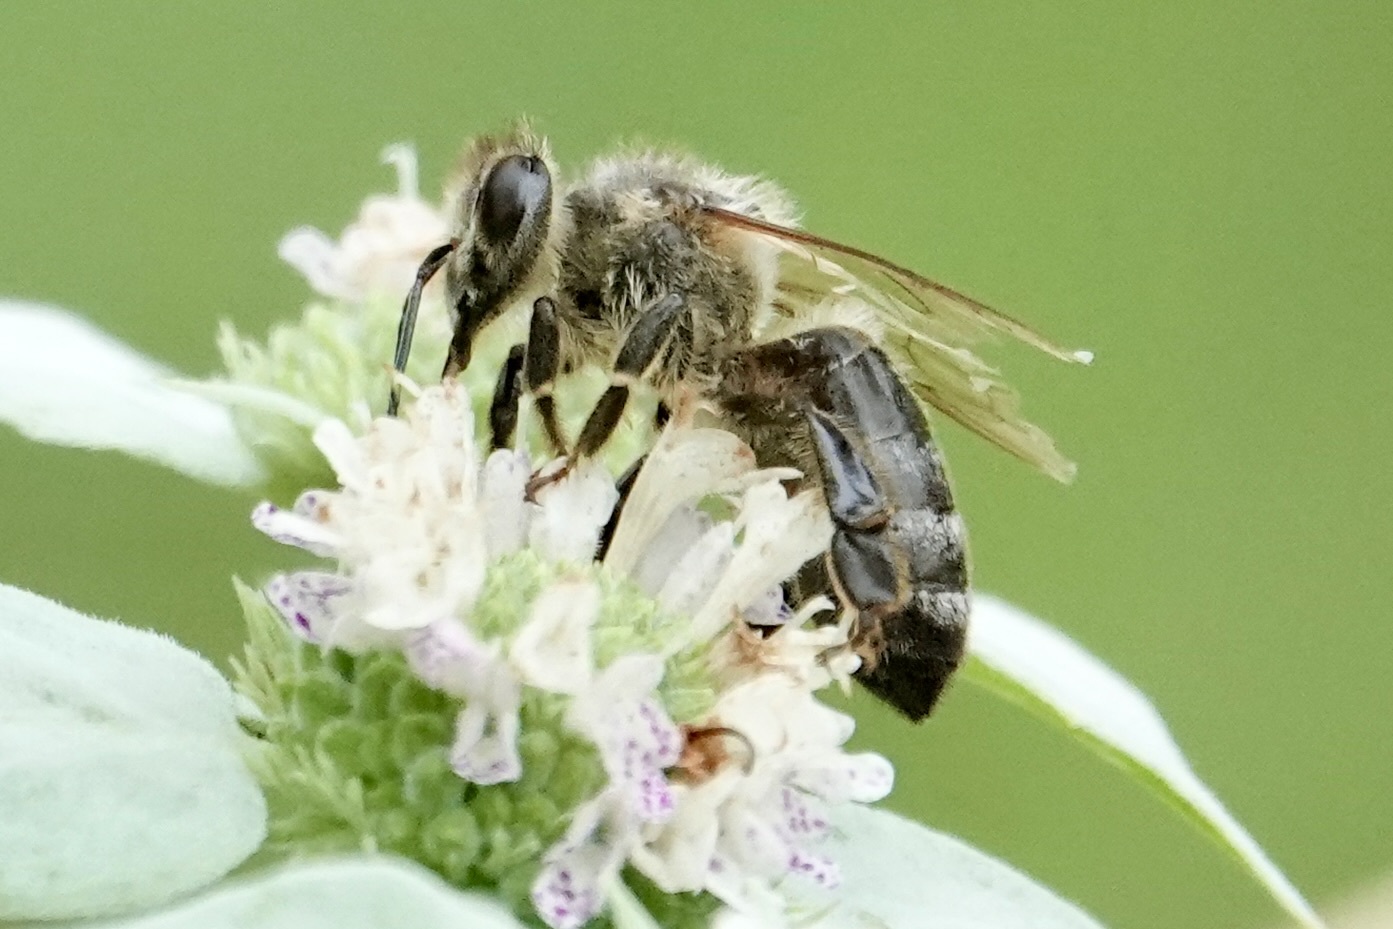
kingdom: Animalia
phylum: Arthropoda
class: Insecta
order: Hymenoptera
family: Apidae
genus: Apis
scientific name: Apis mellifera
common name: Honey bee
